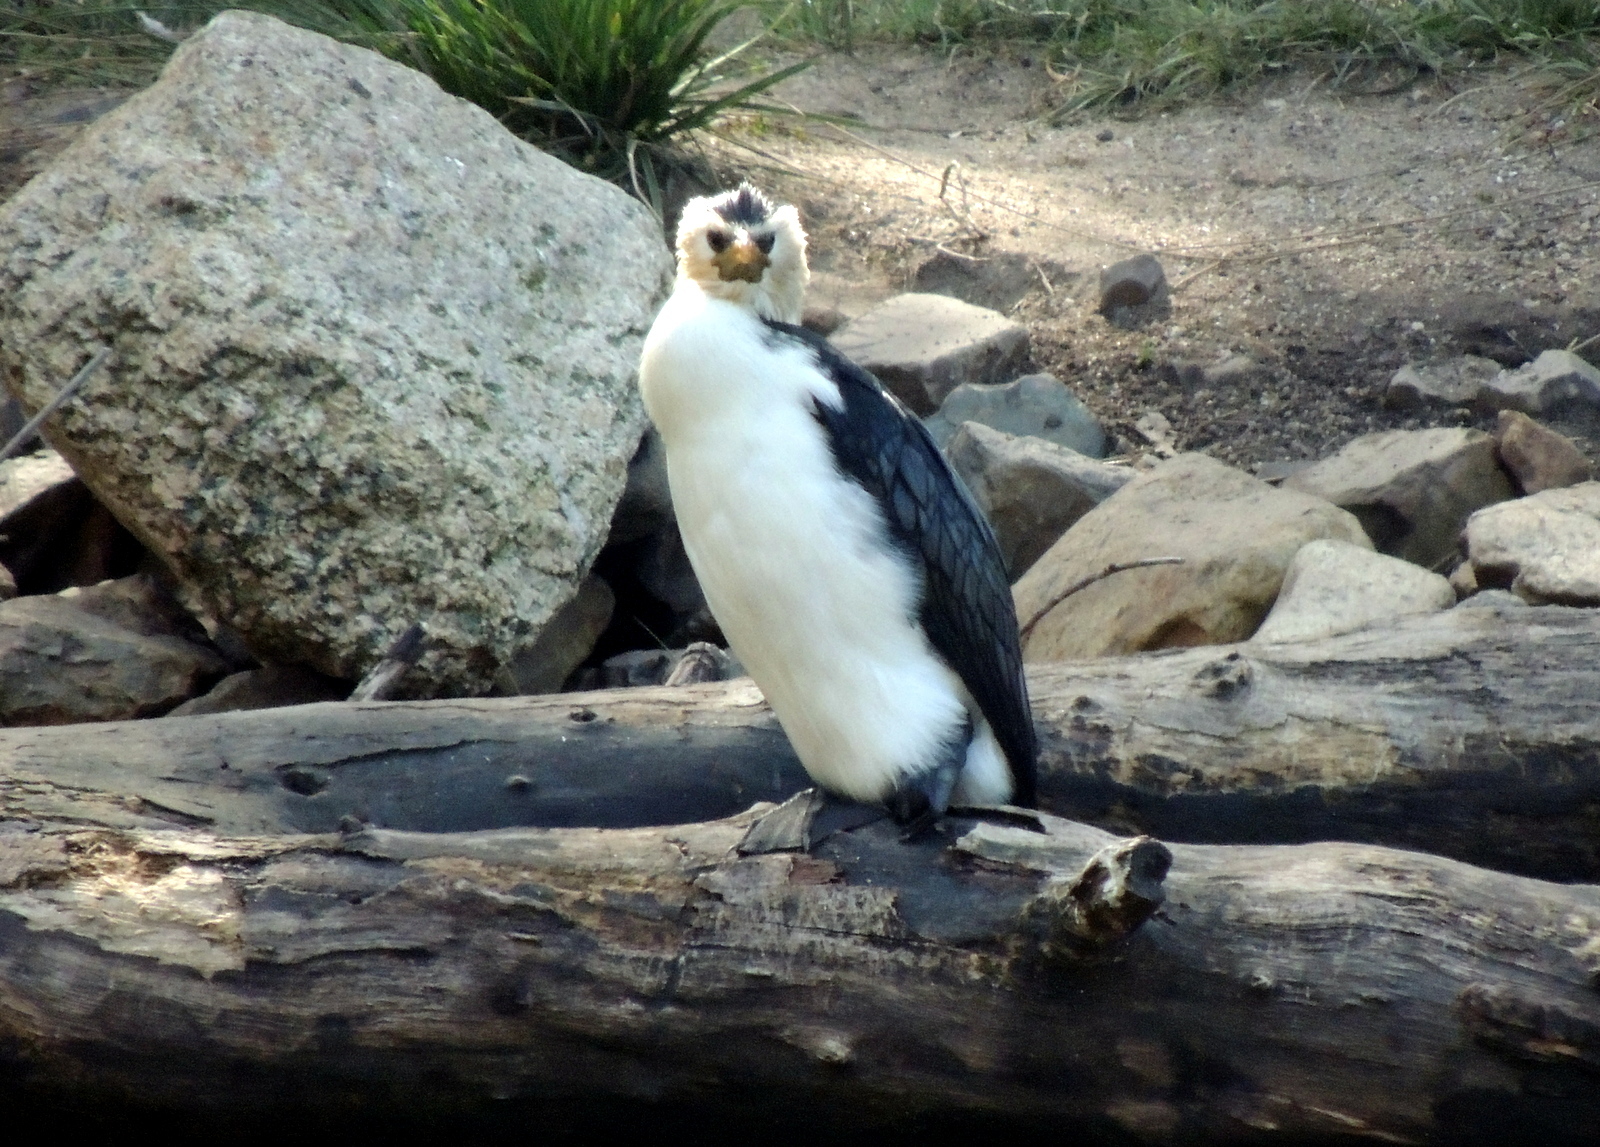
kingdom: Animalia
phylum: Chordata
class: Aves
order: Suliformes
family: Phalacrocoracidae
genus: Microcarbo
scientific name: Microcarbo melanoleucos
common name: Little pied cormorant
